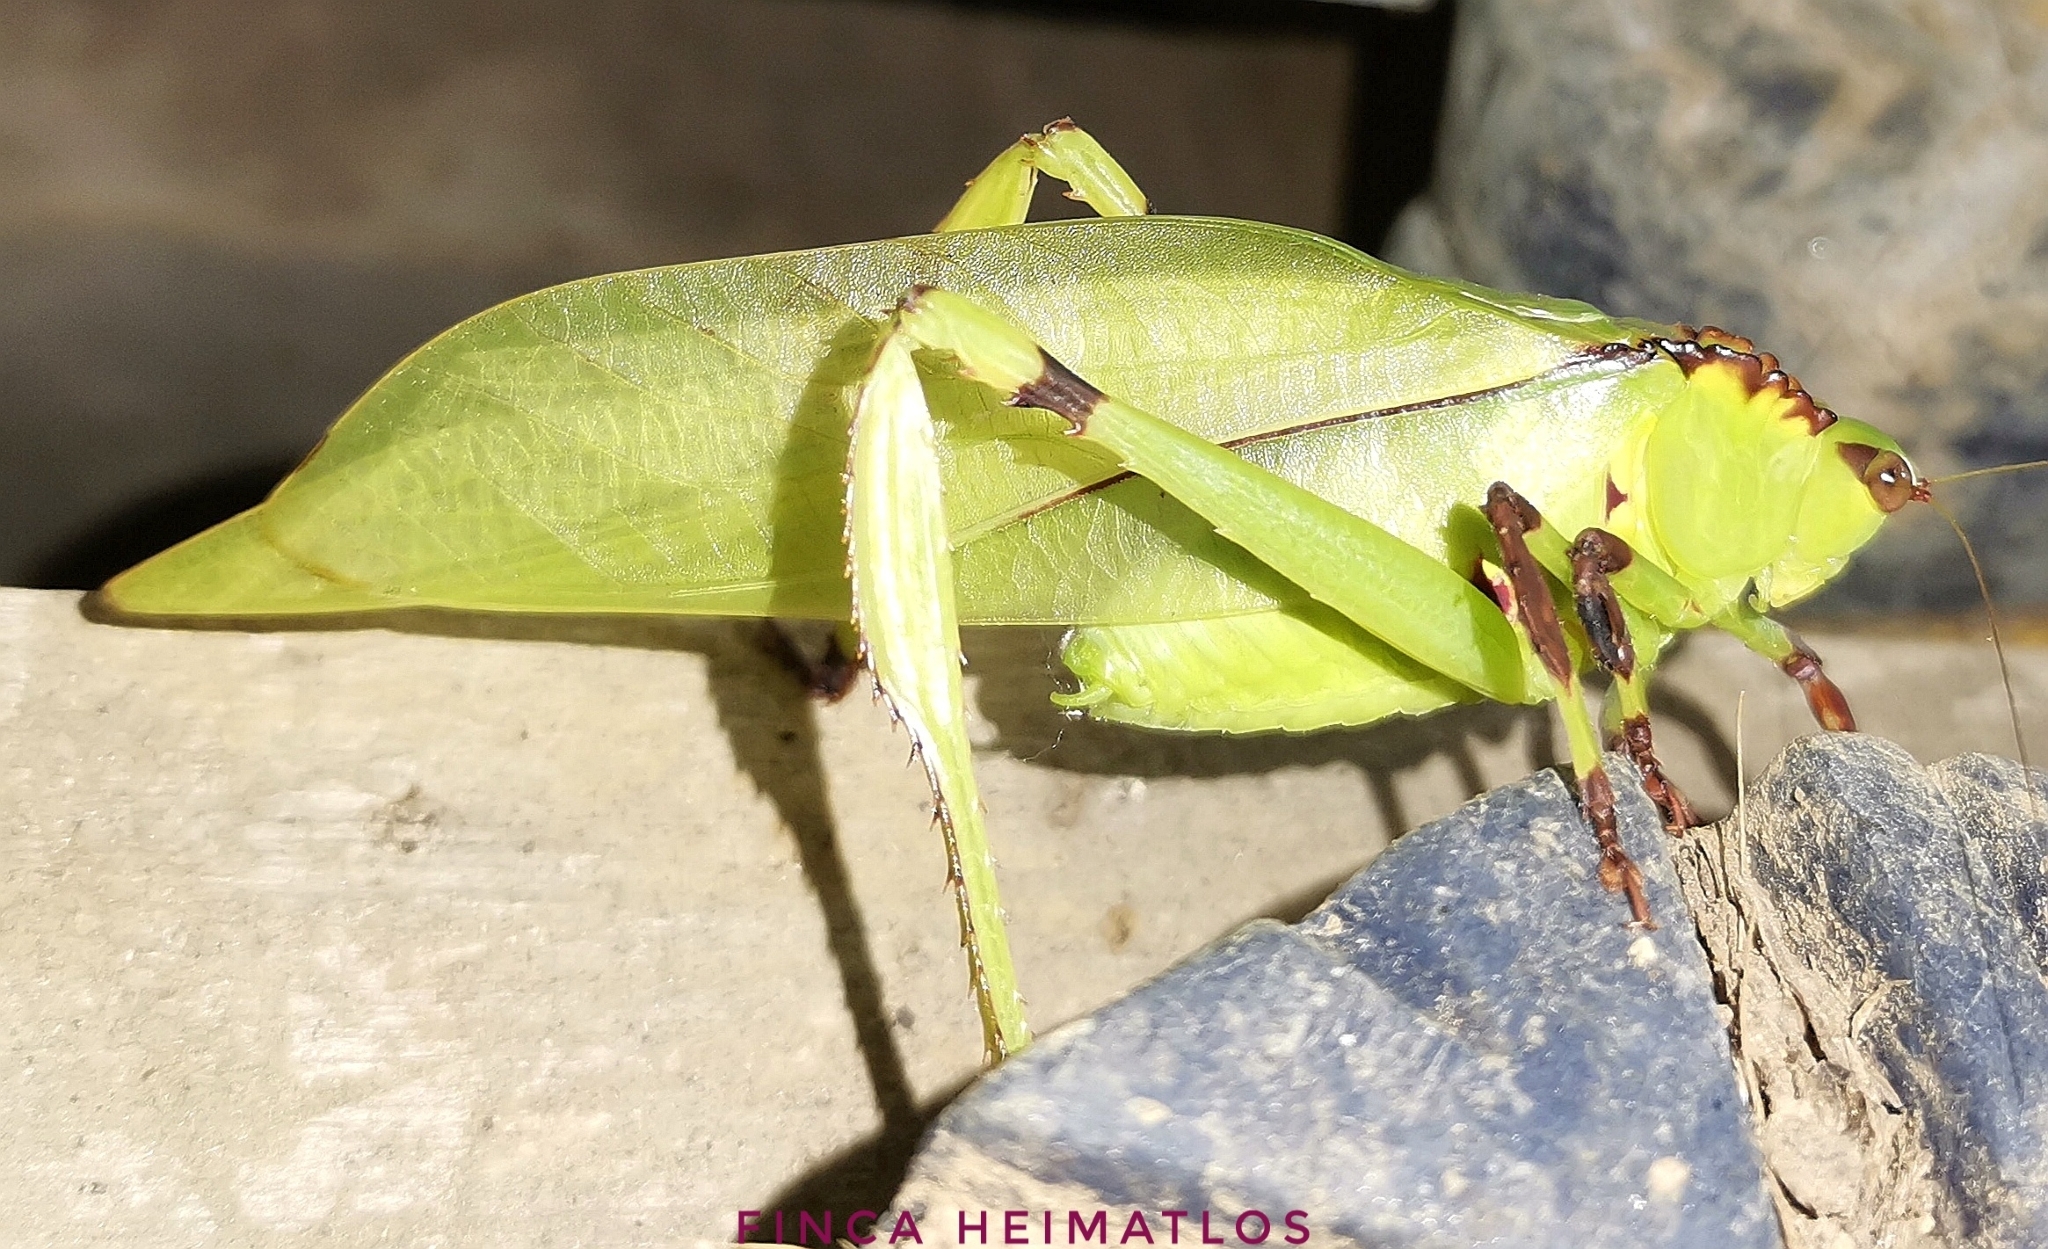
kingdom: Animalia
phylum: Arthropoda
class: Insecta
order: Orthoptera
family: Tettigoniidae
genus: Cnemidophyllum
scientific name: Cnemidophyllum lineatum
